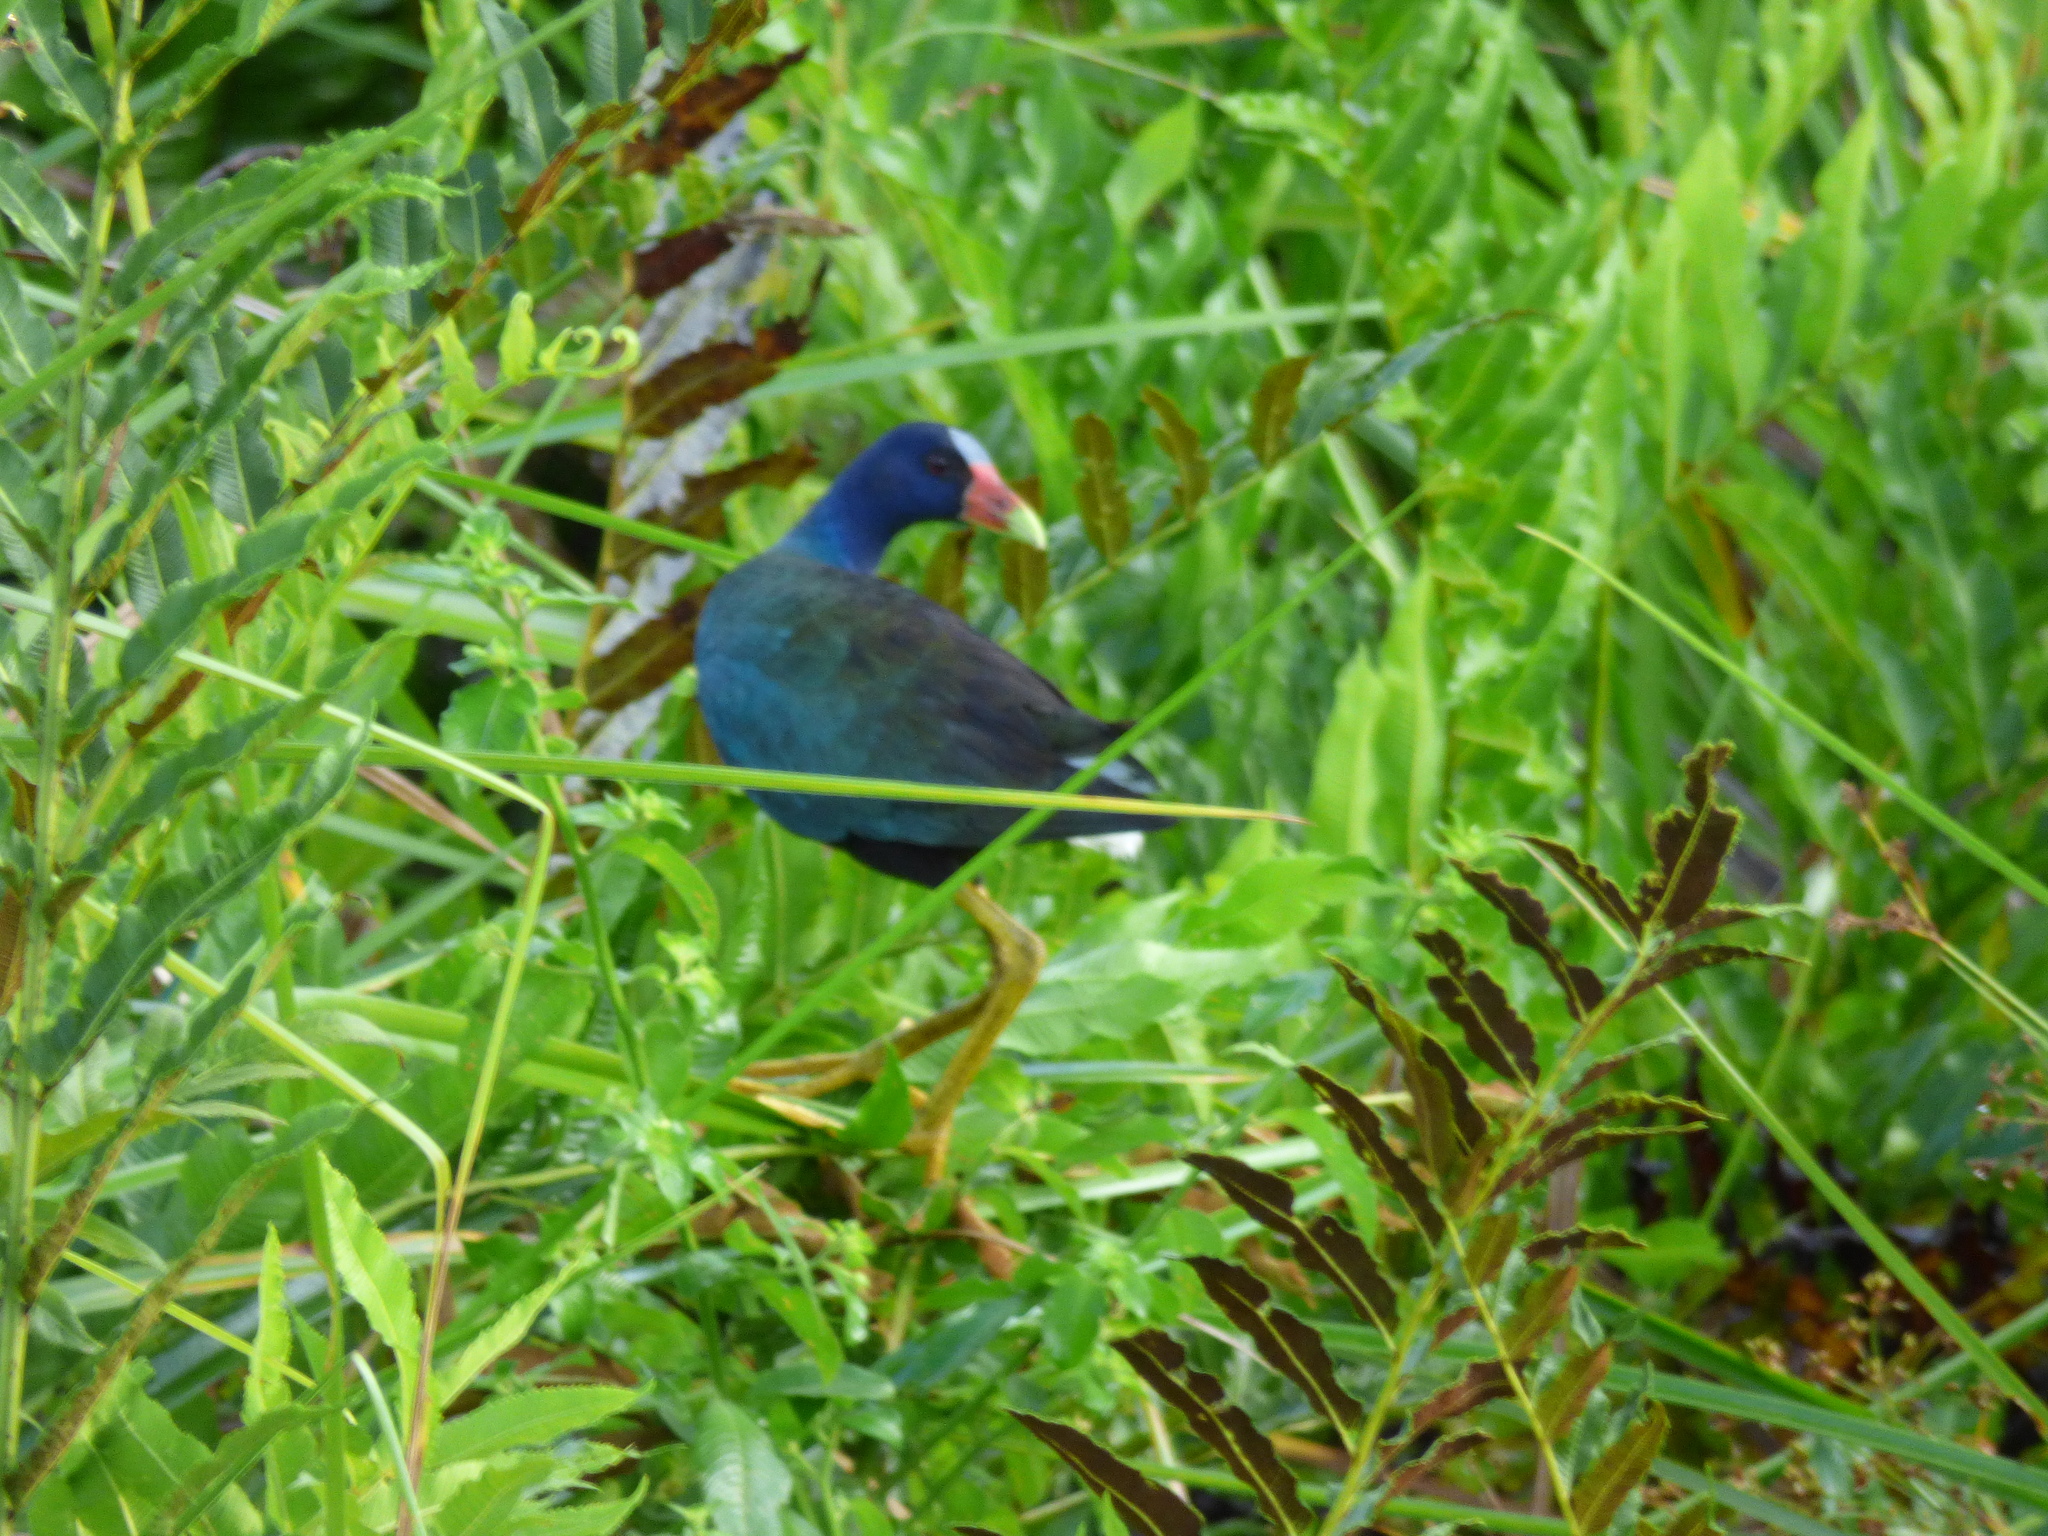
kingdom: Animalia
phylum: Chordata
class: Aves
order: Gruiformes
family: Rallidae
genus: Porphyrio
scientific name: Porphyrio martinica
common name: Purple gallinule
